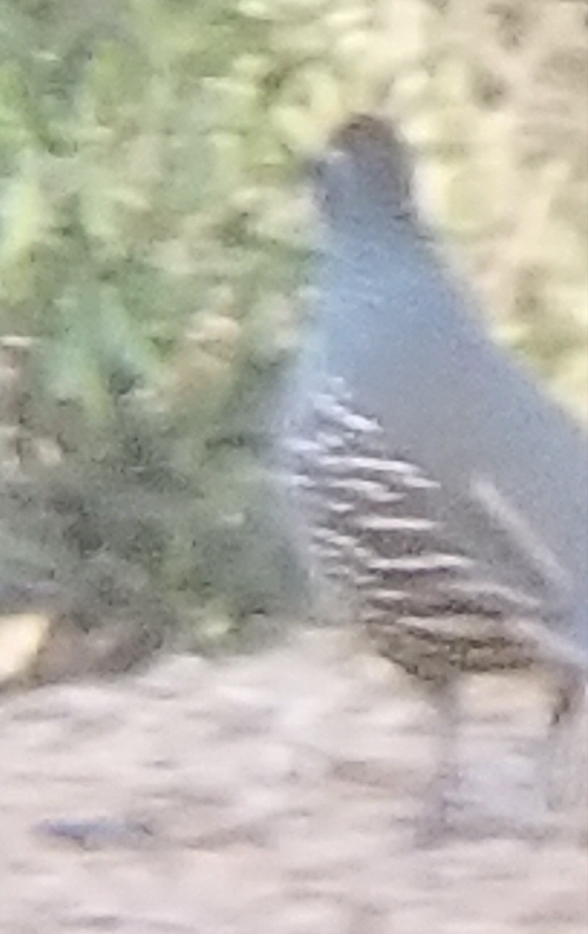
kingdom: Animalia
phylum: Chordata
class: Aves
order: Galliformes
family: Odontophoridae
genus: Callipepla
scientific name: Callipepla californica
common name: California quail
